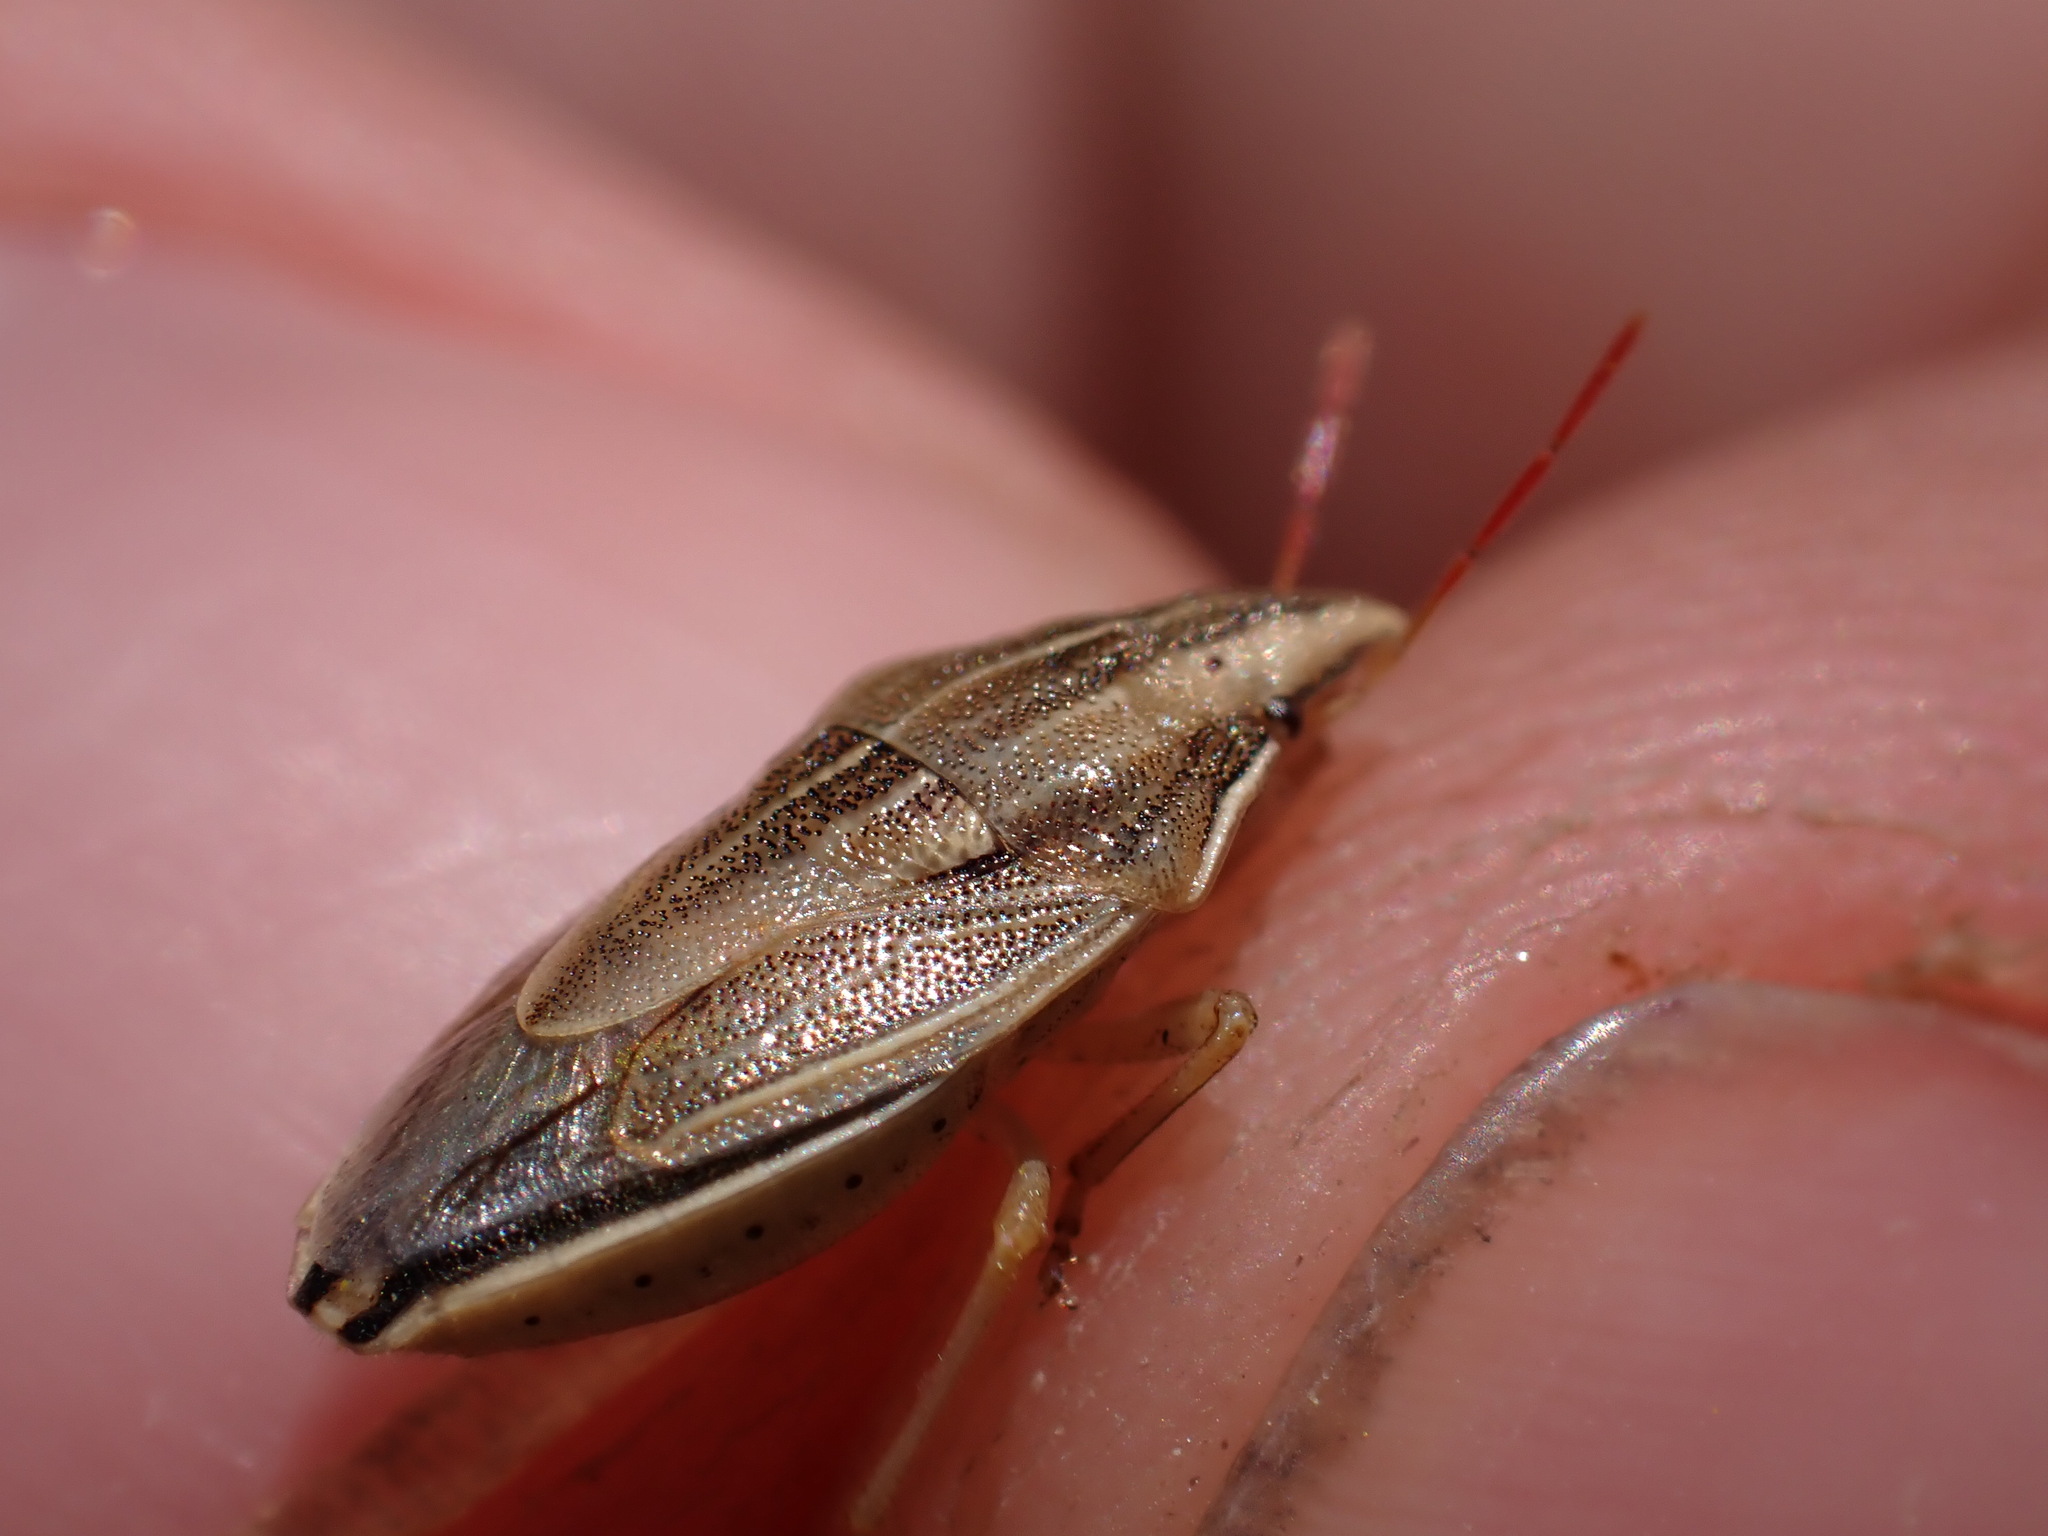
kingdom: Animalia
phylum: Arthropoda
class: Insecta
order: Hemiptera
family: Pentatomidae
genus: Aelia
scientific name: Aelia acuminata
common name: Bishop's mitre
